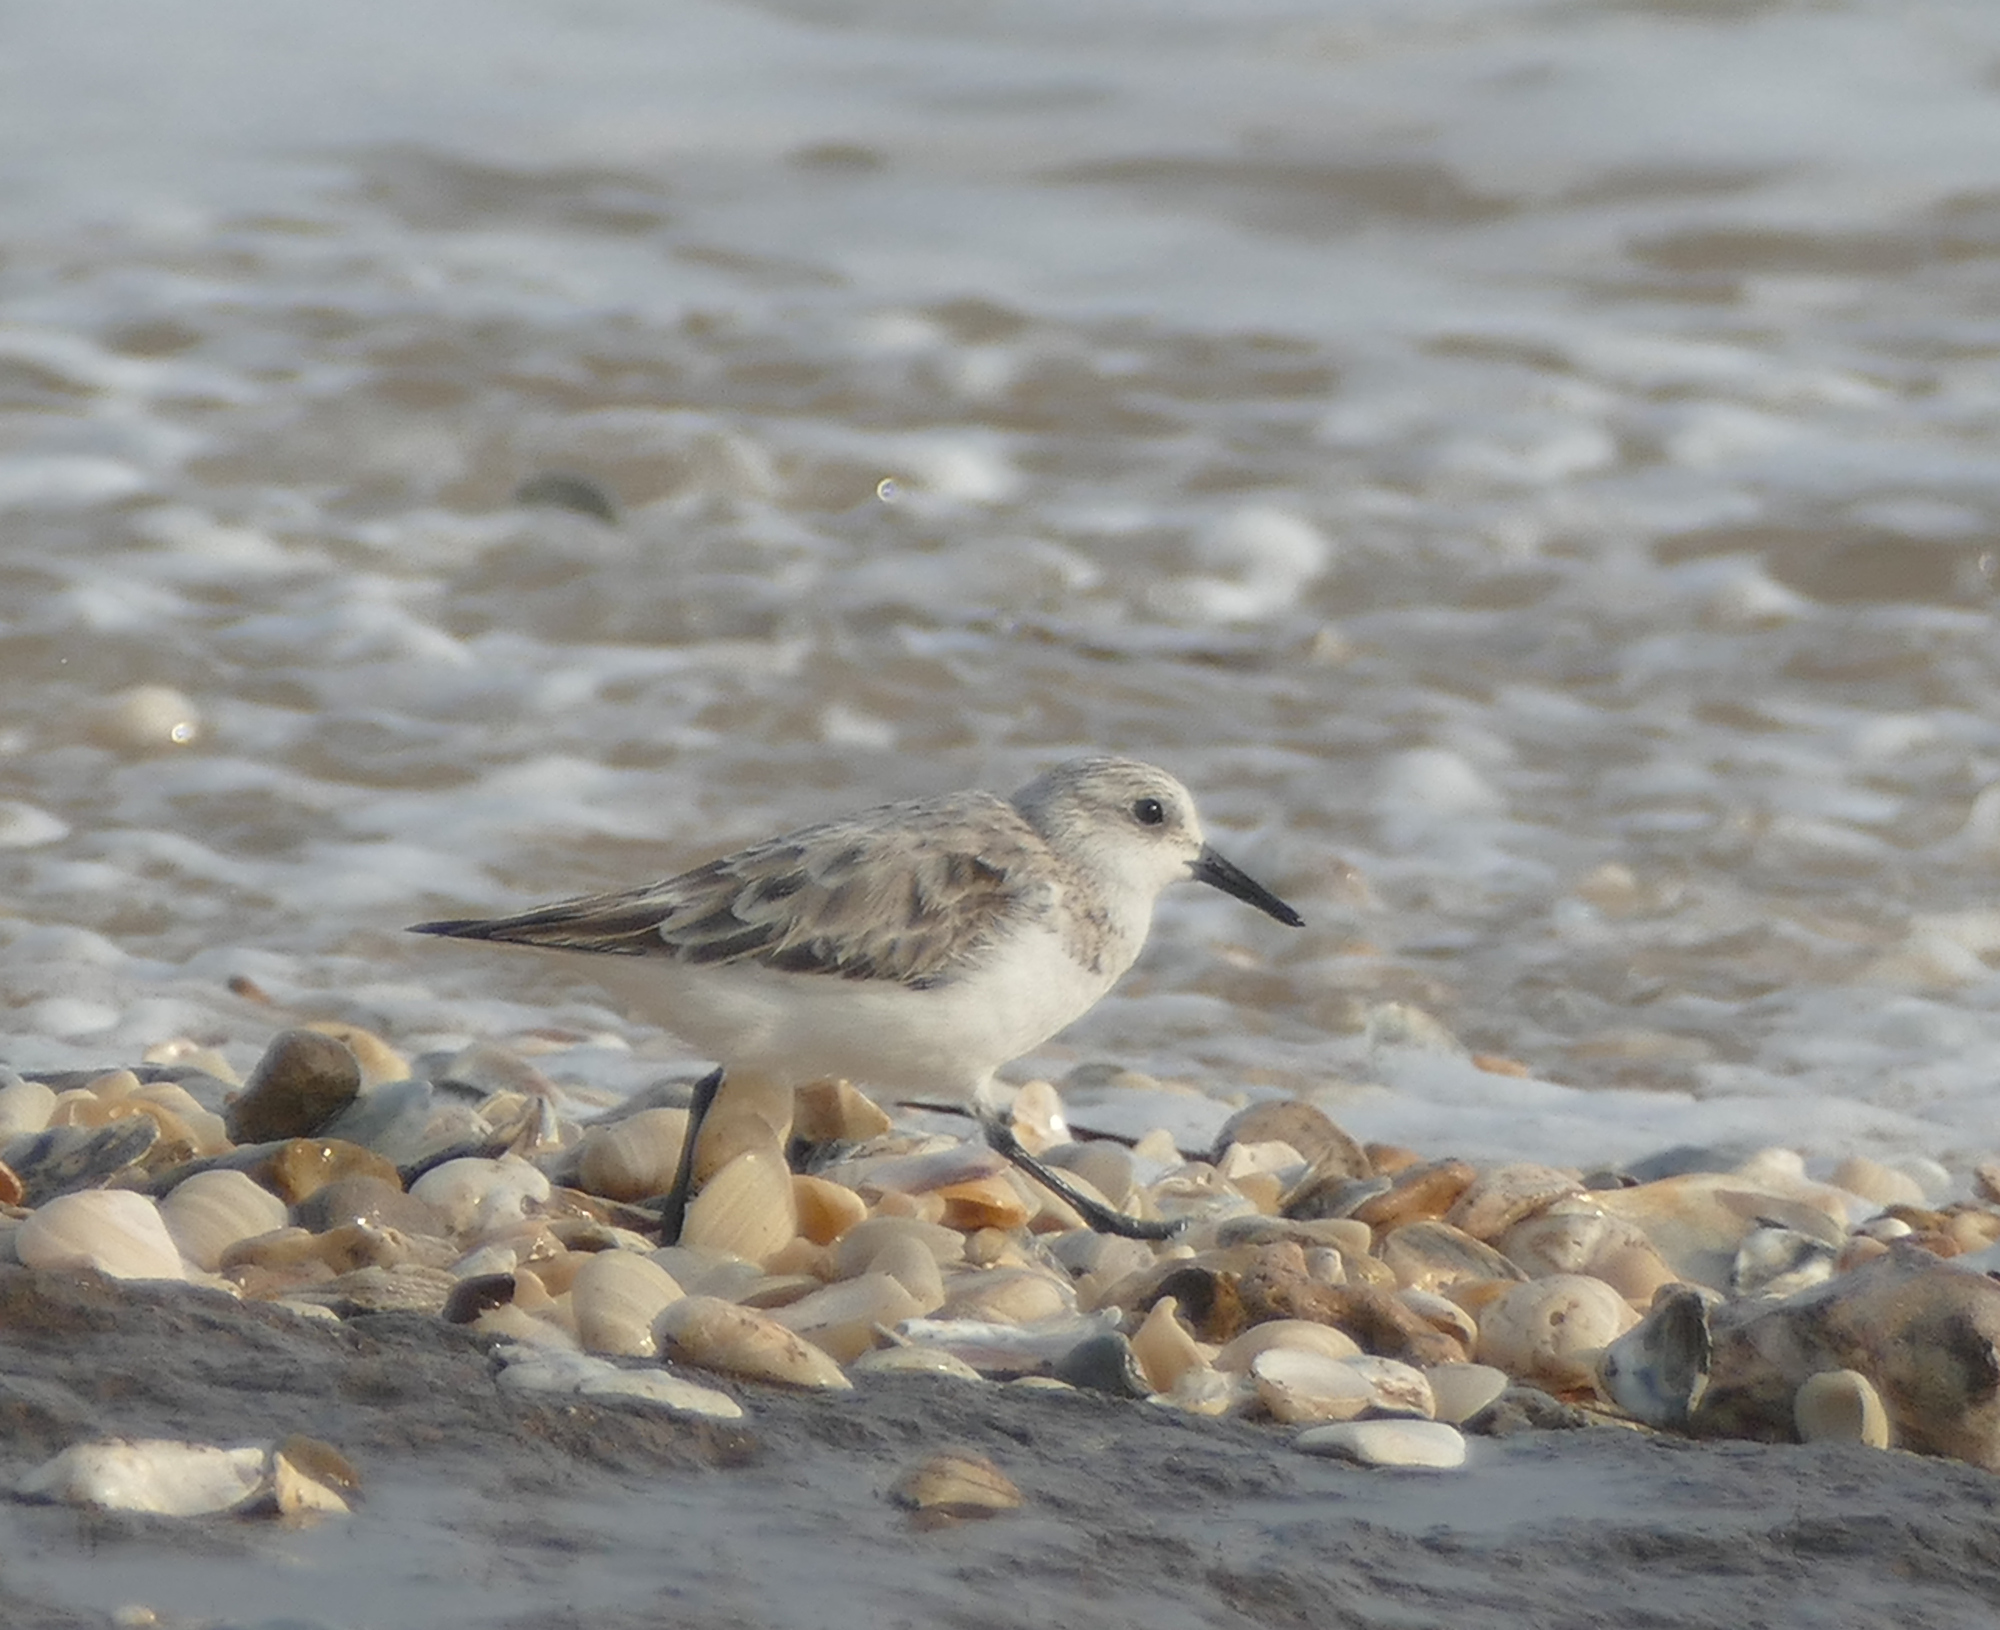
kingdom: Animalia
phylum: Chordata
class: Aves
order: Charadriiformes
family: Scolopacidae
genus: Calidris
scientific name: Calidris alba
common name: Sanderling
